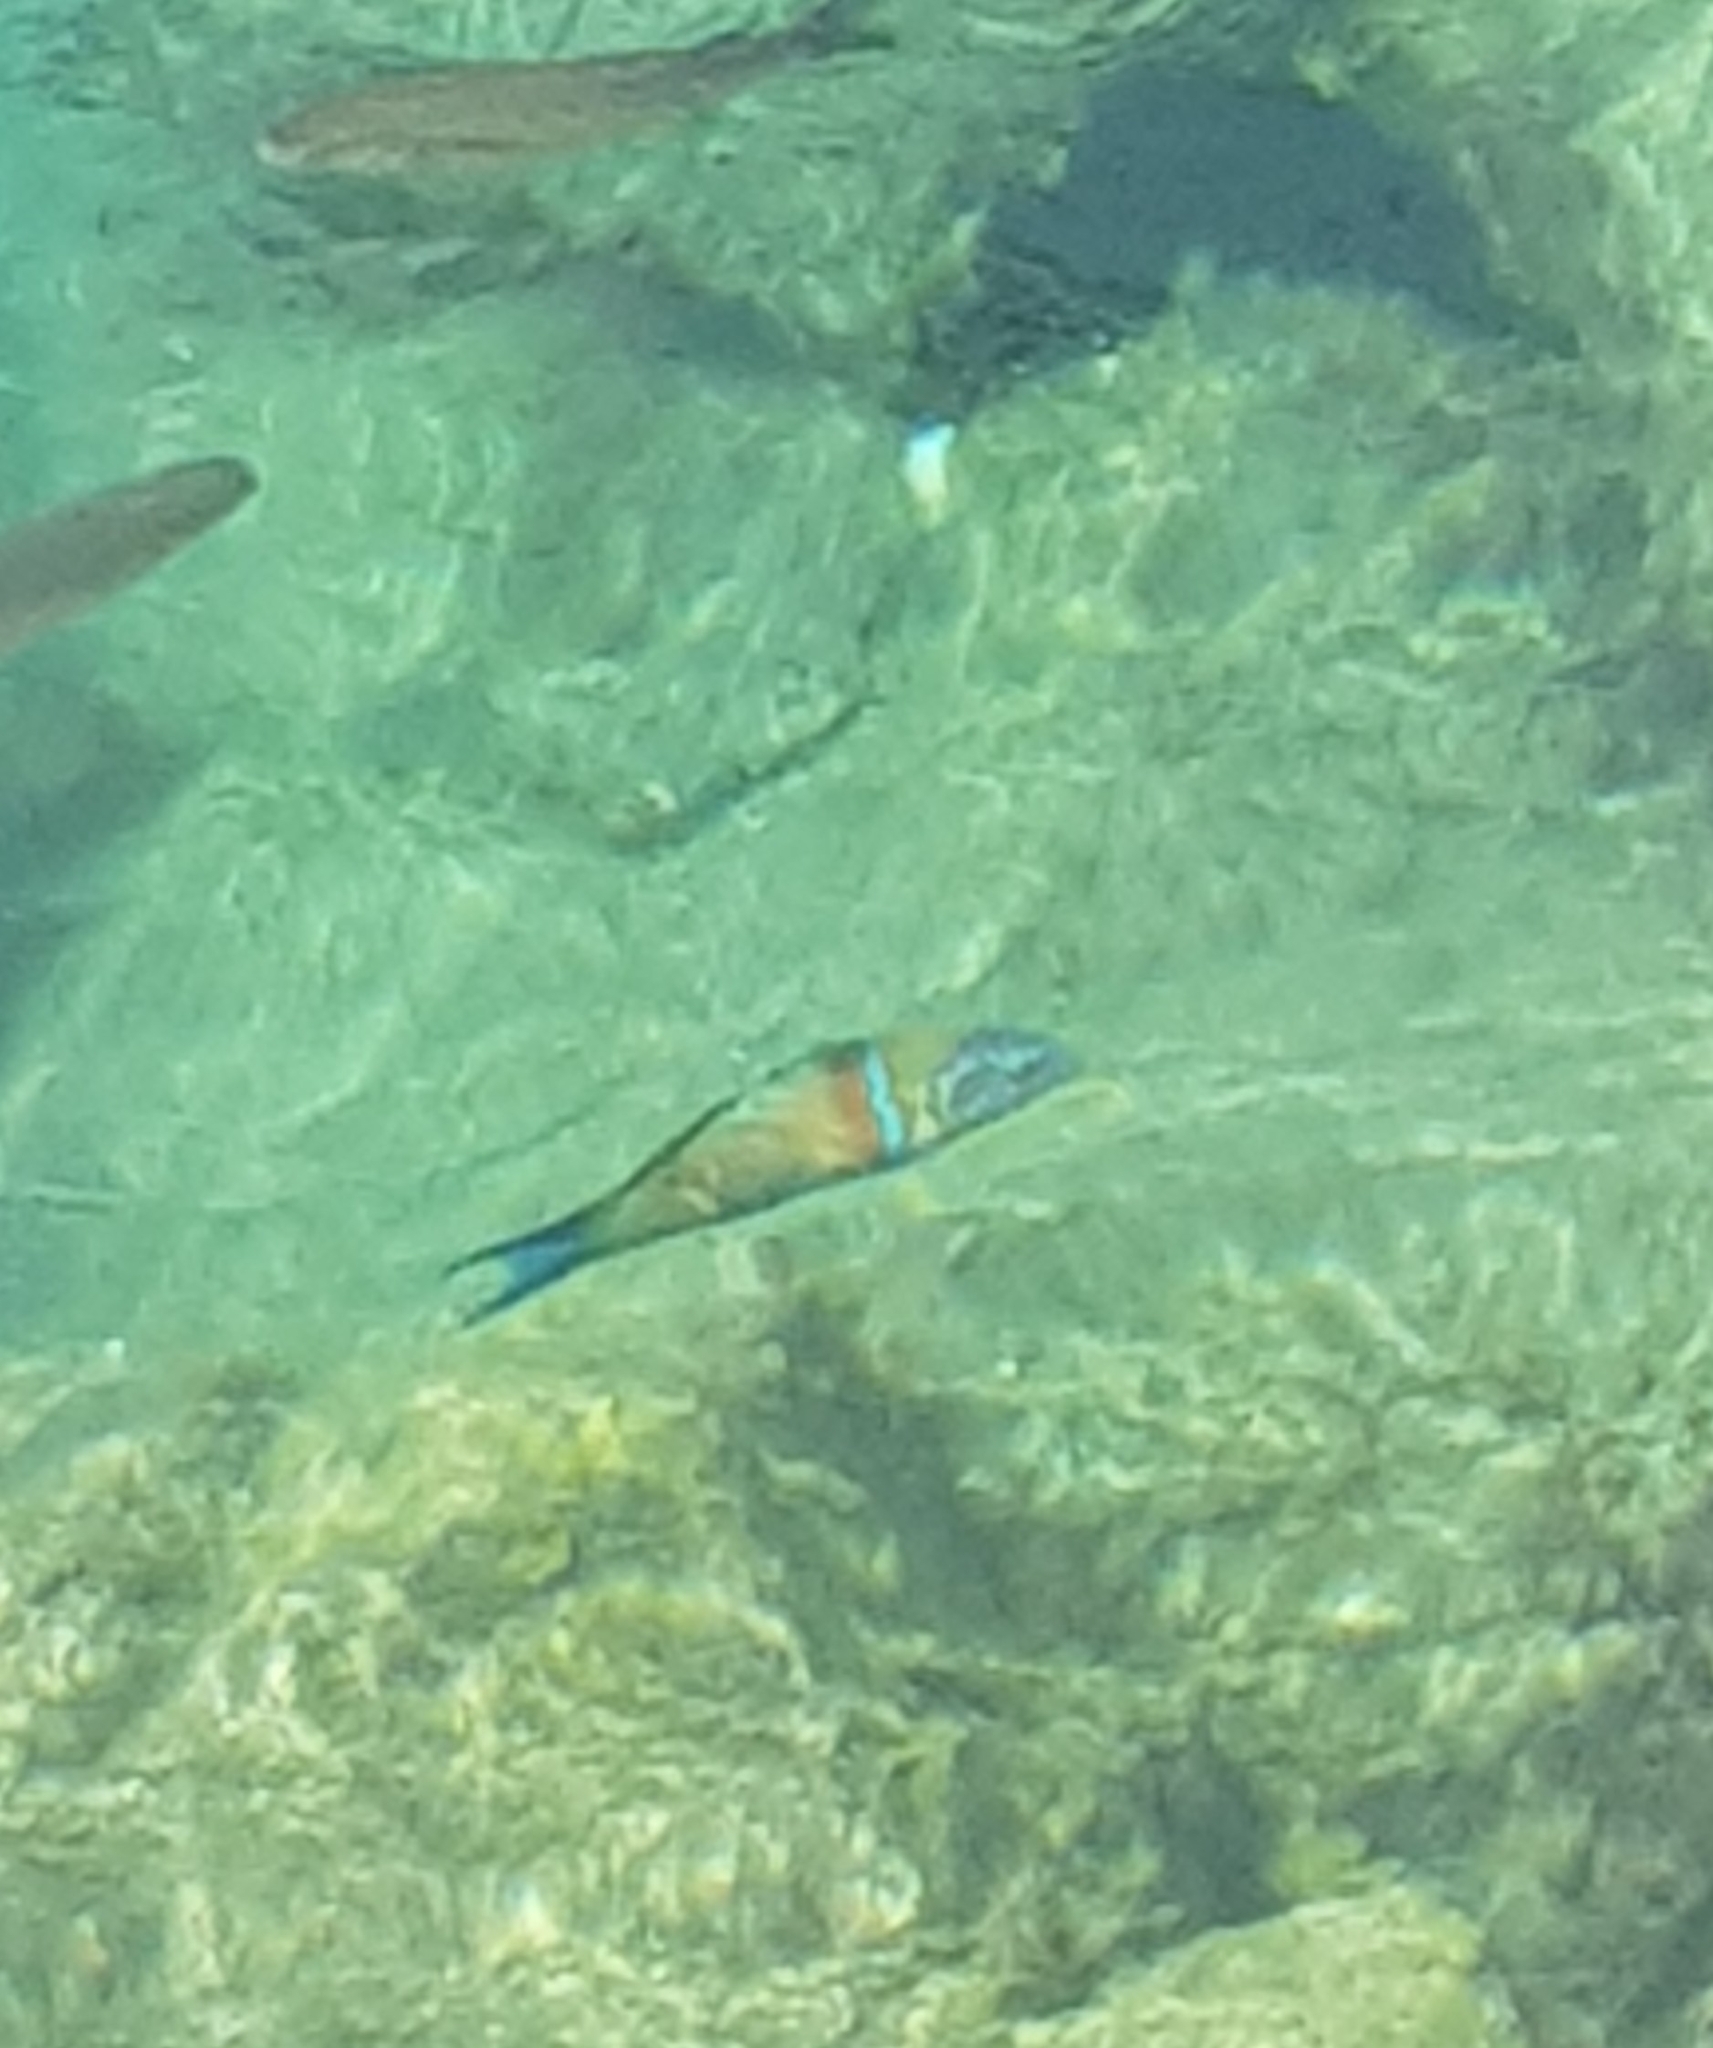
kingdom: Animalia
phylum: Chordata
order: Perciformes
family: Labridae
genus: Thalassoma
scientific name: Thalassoma pavo
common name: Ornate wrasse
